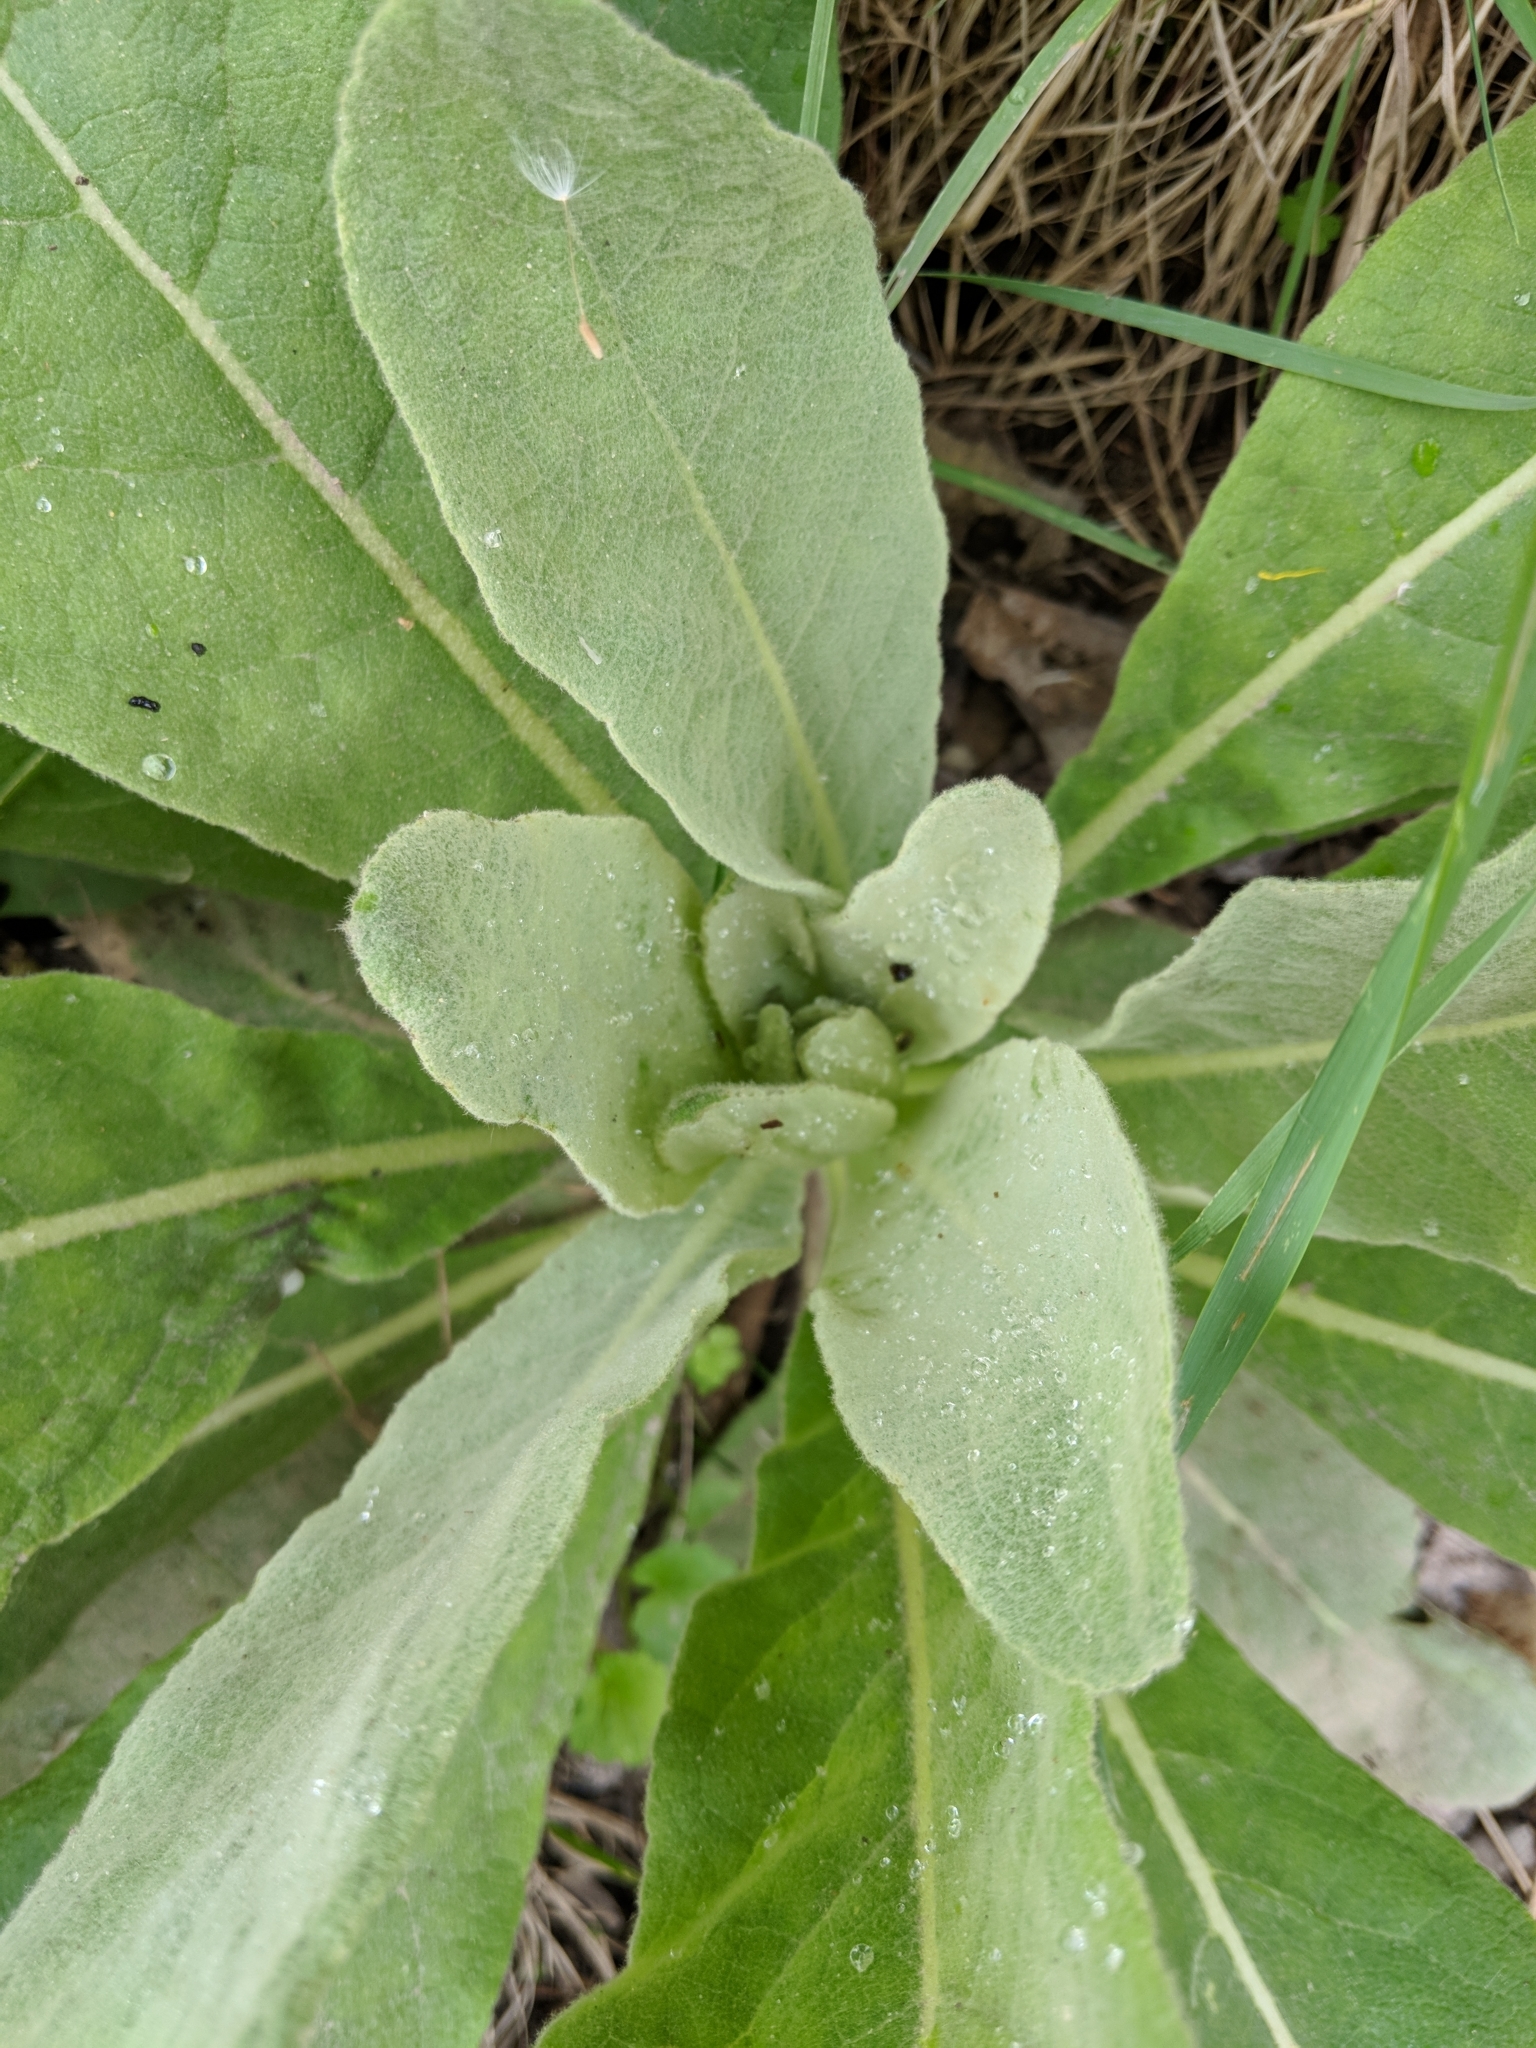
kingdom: Plantae
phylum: Tracheophyta
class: Magnoliopsida
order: Lamiales
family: Scrophulariaceae
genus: Verbascum
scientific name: Verbascum thapsus
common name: Common mullein
